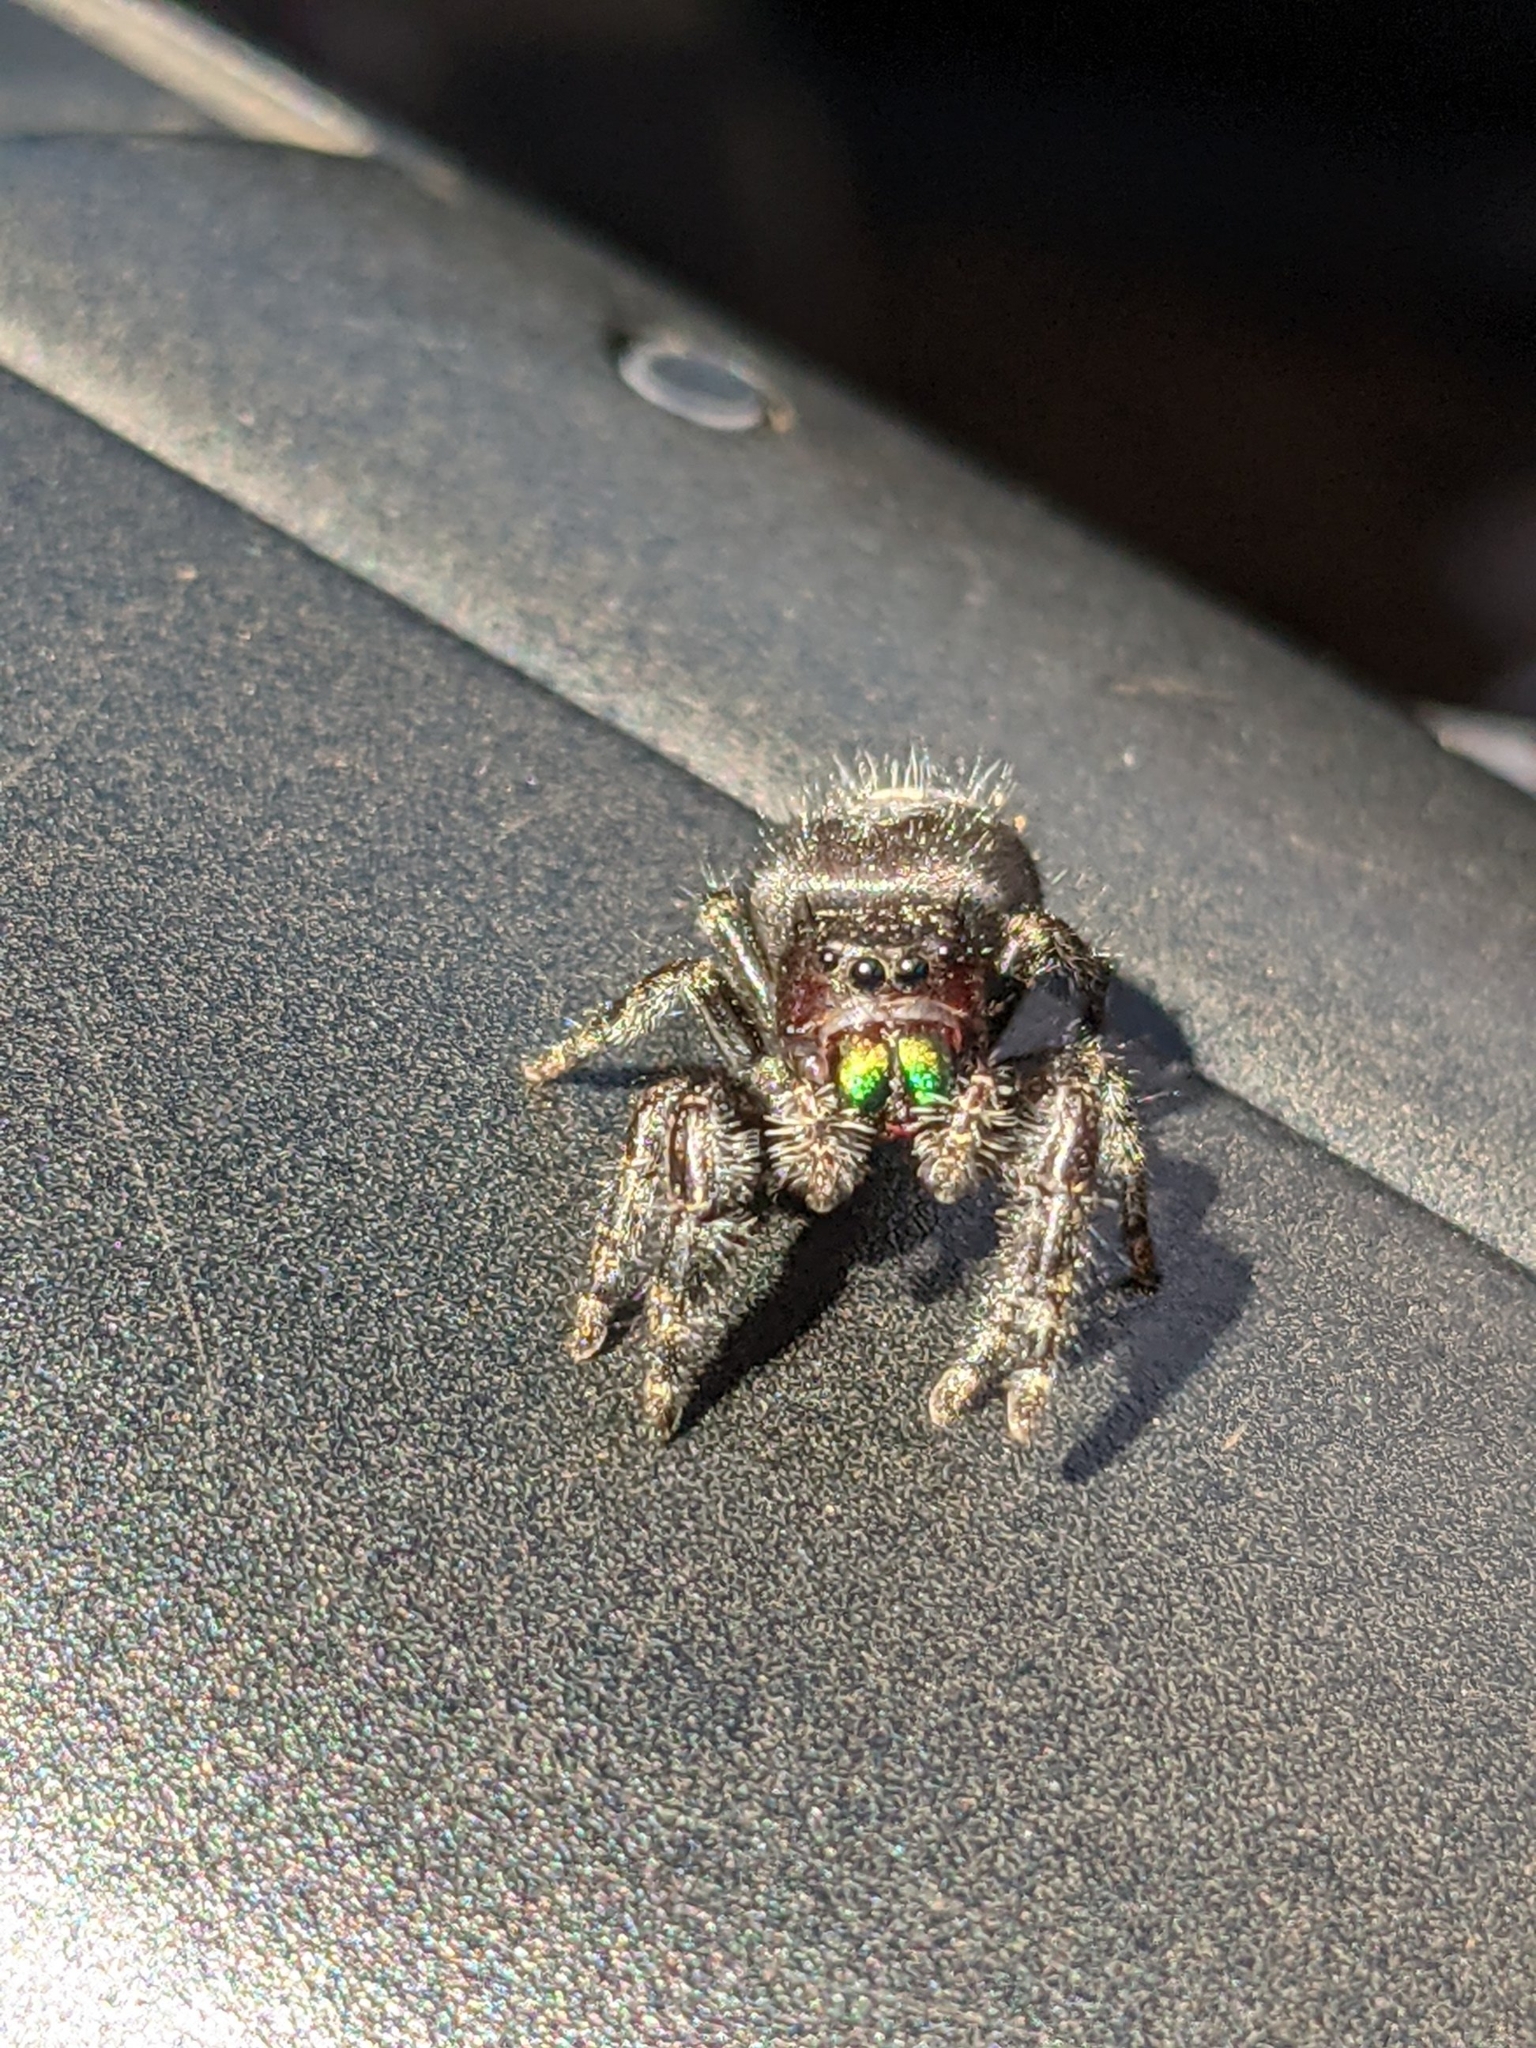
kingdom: Animalia
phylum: Arthropoda
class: Arachnida
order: Araneae
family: Salticidae
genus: Phidippus
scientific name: Phidippus audax
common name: Bold jumper
